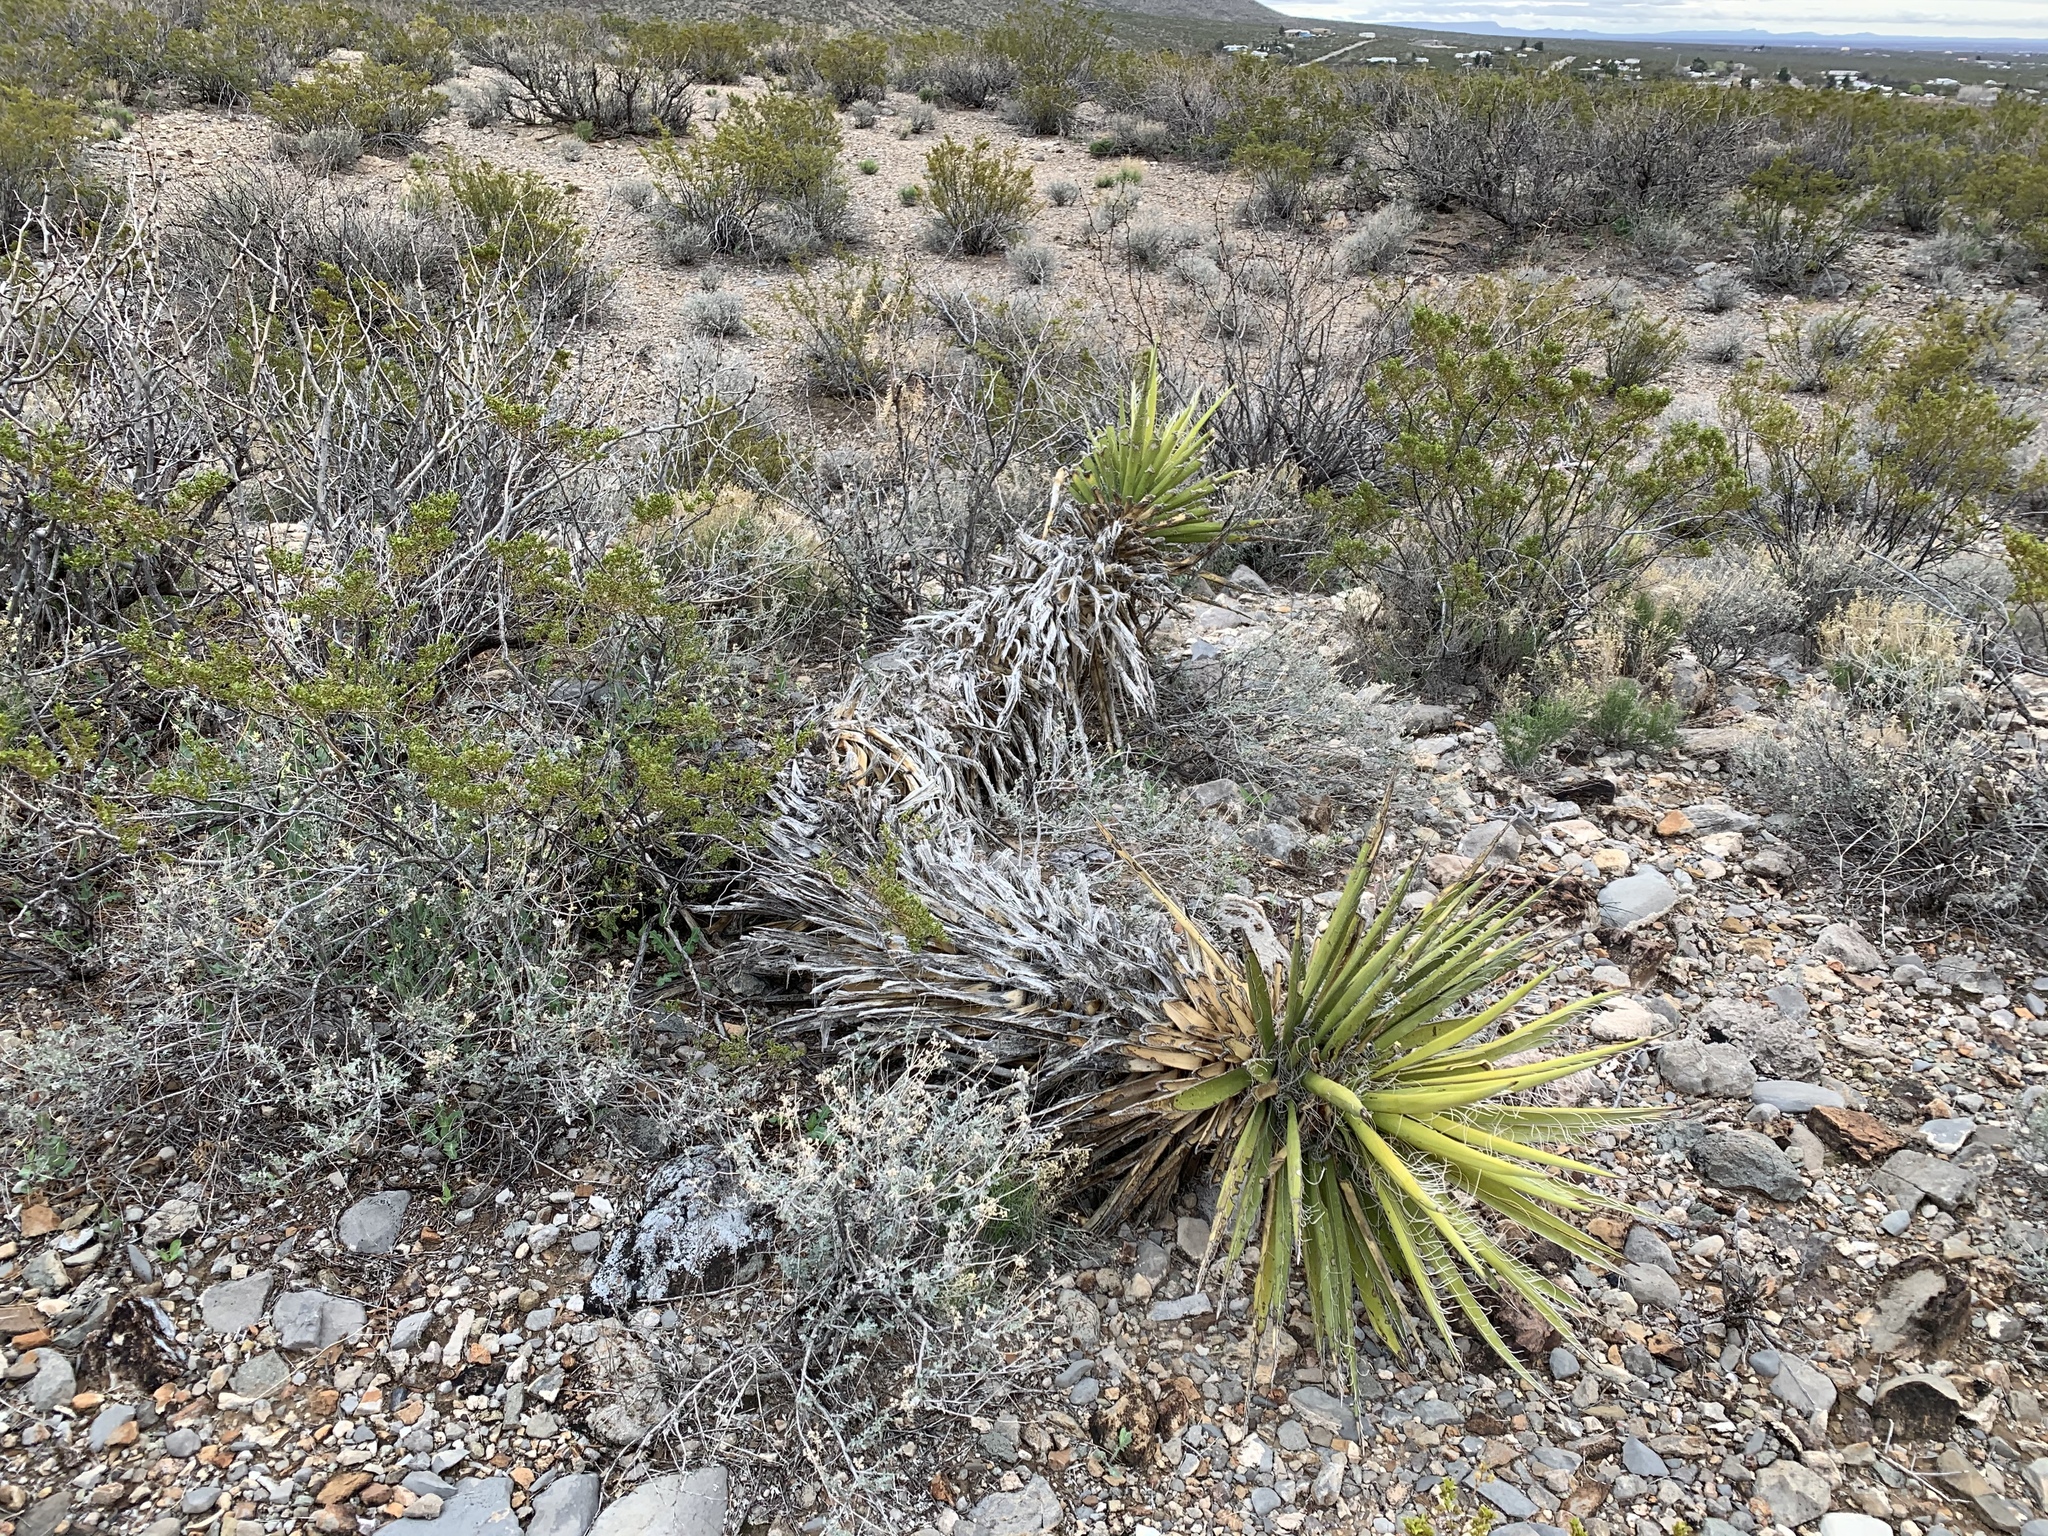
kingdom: Plantae
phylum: Tracheophyta
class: Liliopsida
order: Asparagales
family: Asparagaceae
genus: Yucca
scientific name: Yucca treculiana
